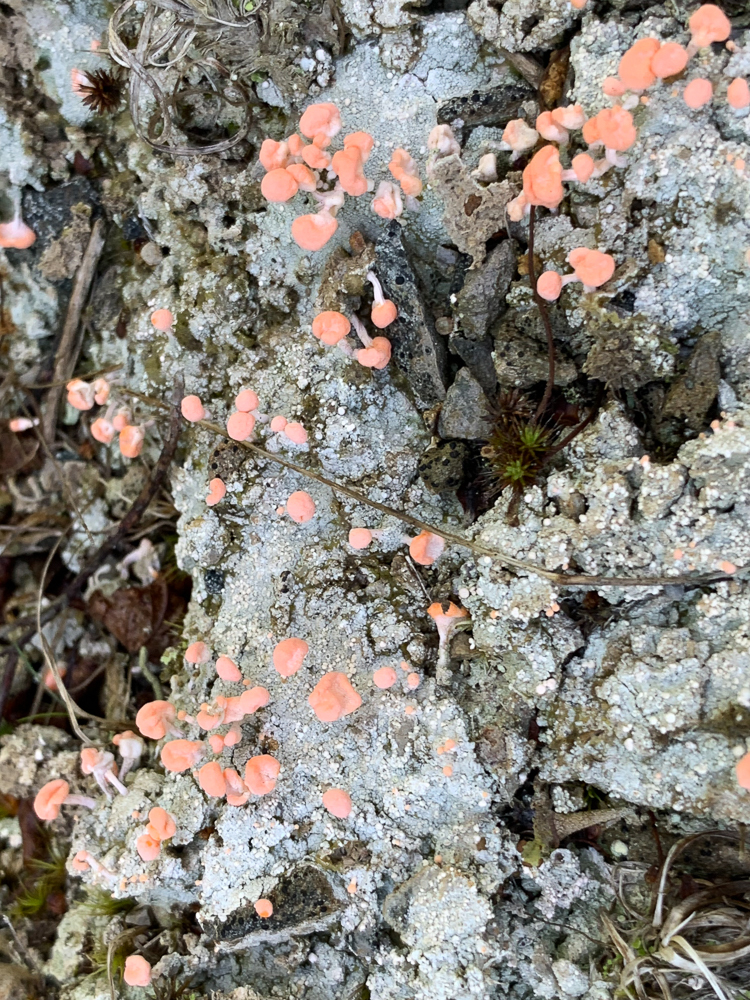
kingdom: Fungi
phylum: Ascomycota
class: Lecanoromycetes
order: Pertusariales
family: Icmadophilaceae
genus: Dibaeis
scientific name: Dibaeis baeomyces
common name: Pink earth lichen
